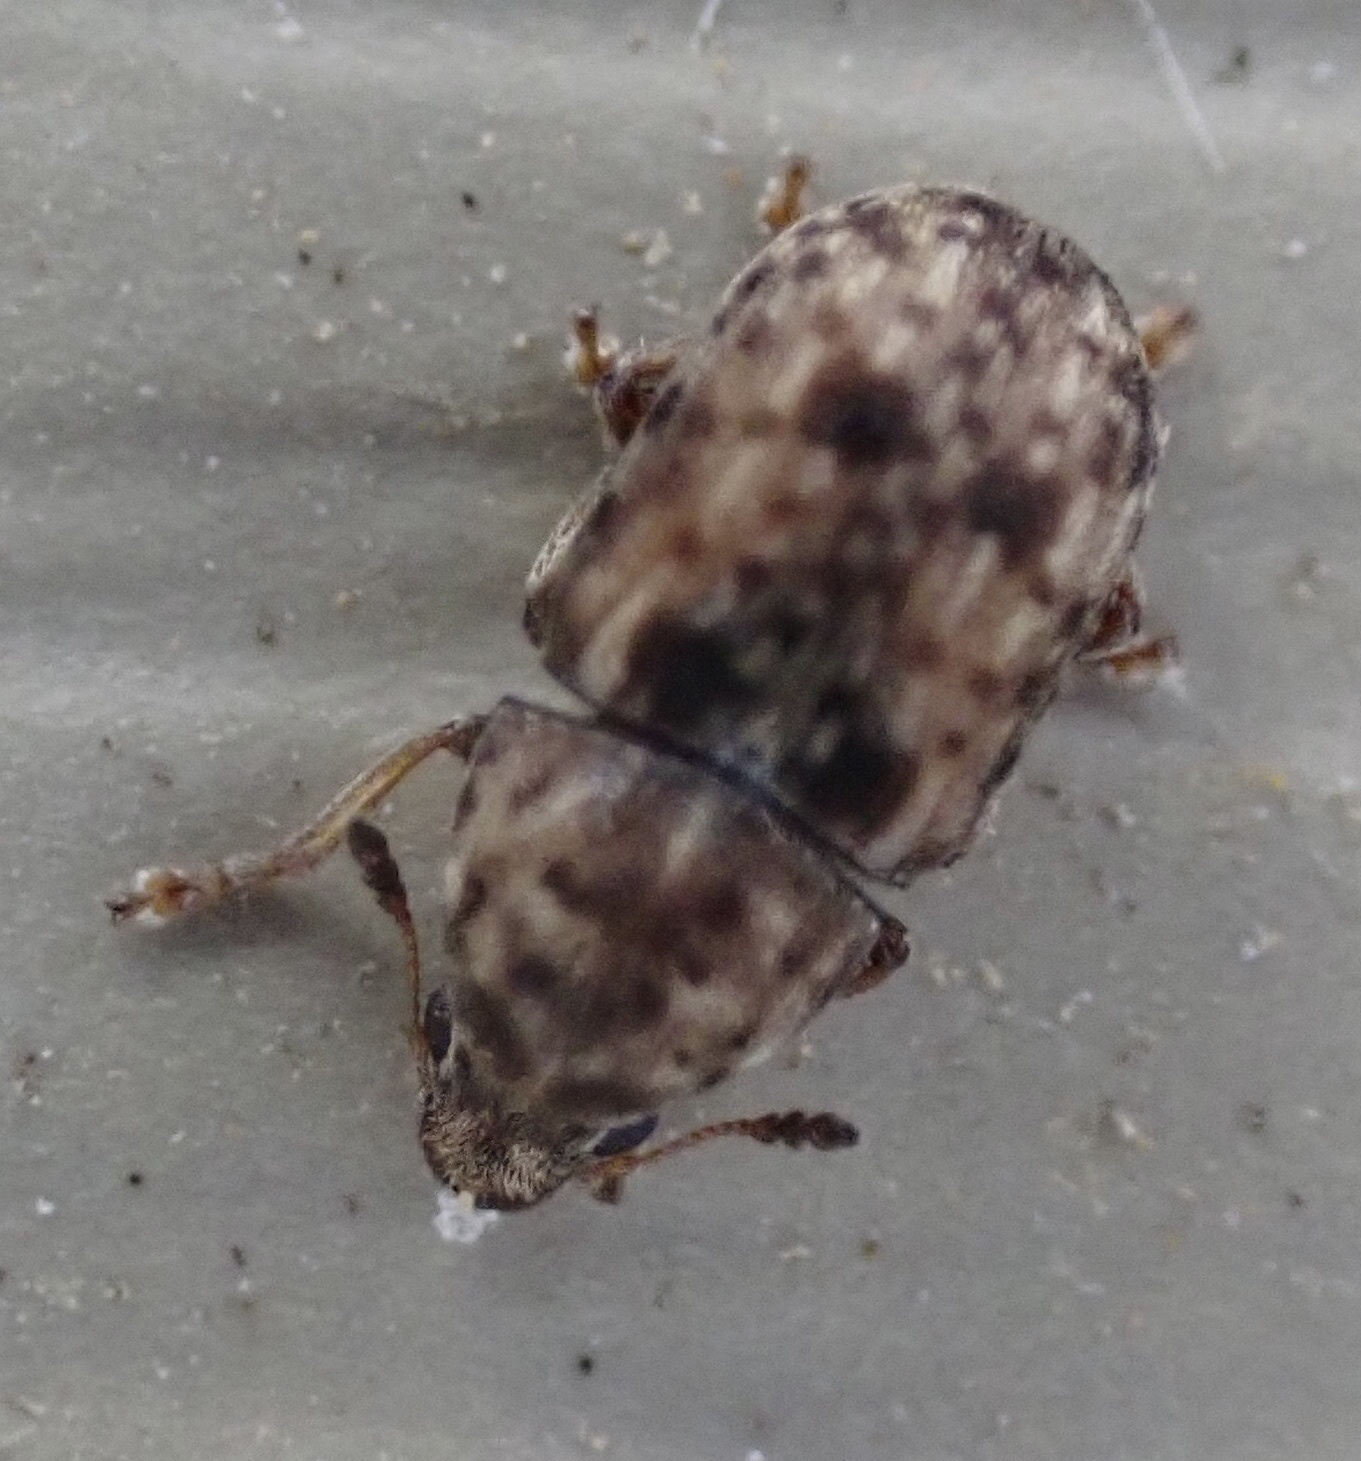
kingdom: Animalia
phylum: Arthropoda
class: Insecta
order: Coleoptera
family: Anthribidae
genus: Anthribus
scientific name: Anthribus nebulosus
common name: Fungus weevil
